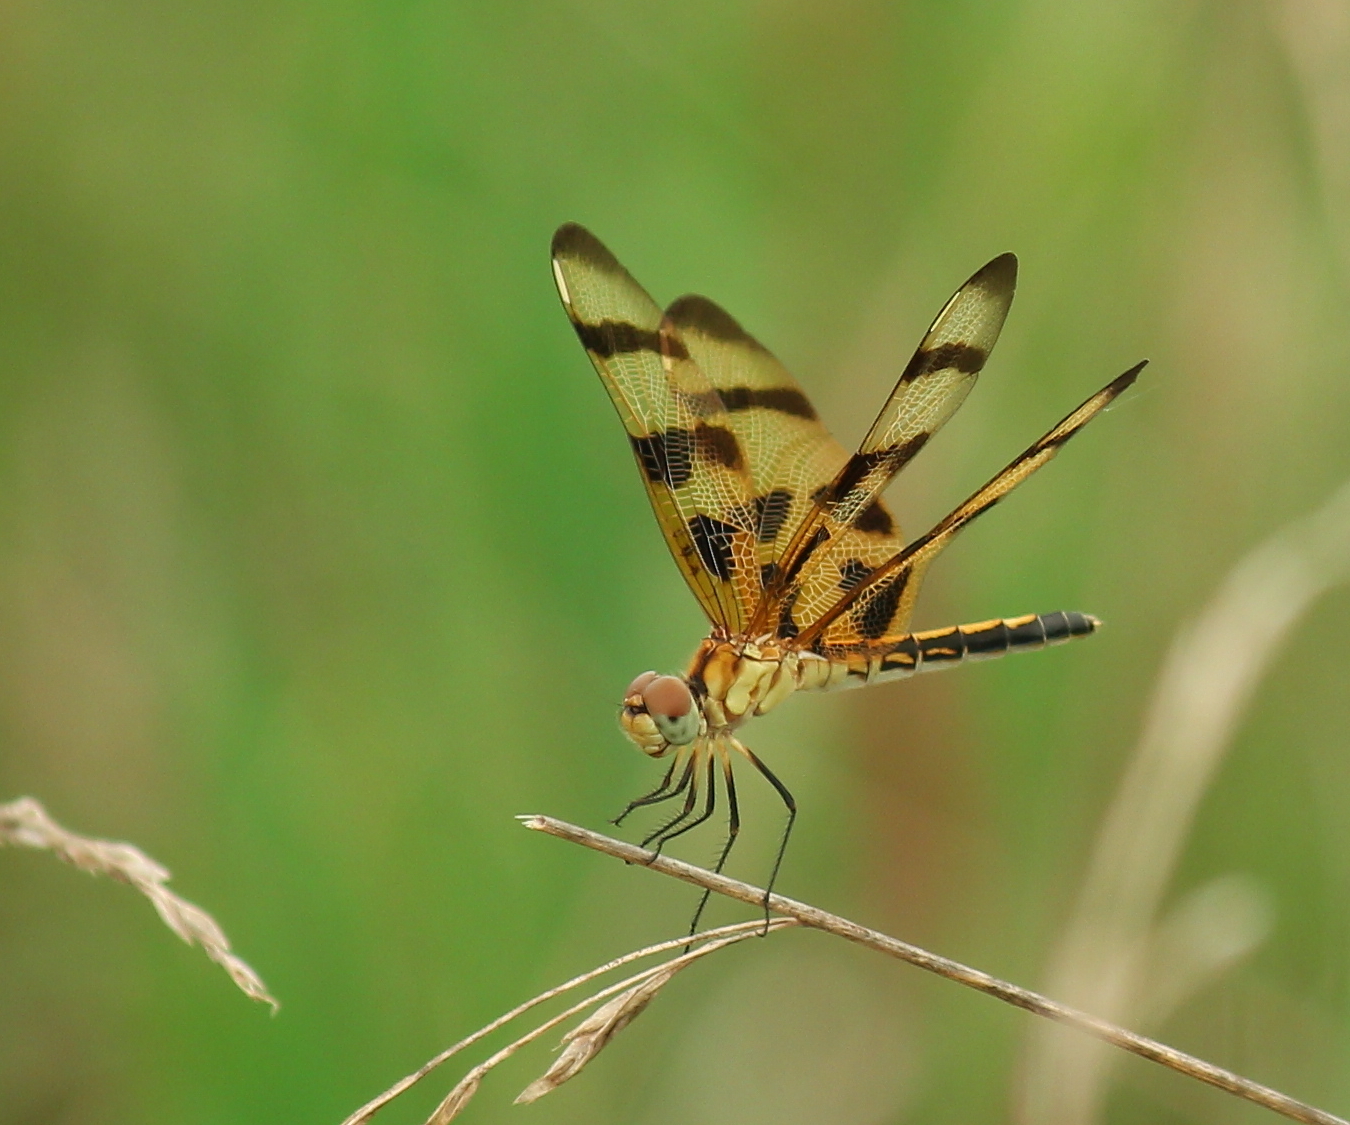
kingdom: Animalia
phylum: Arthropoda
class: Insecta
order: Odonata
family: Libellulidae
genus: Celithemis
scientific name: Celithemis eponina
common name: Halloween pennant
